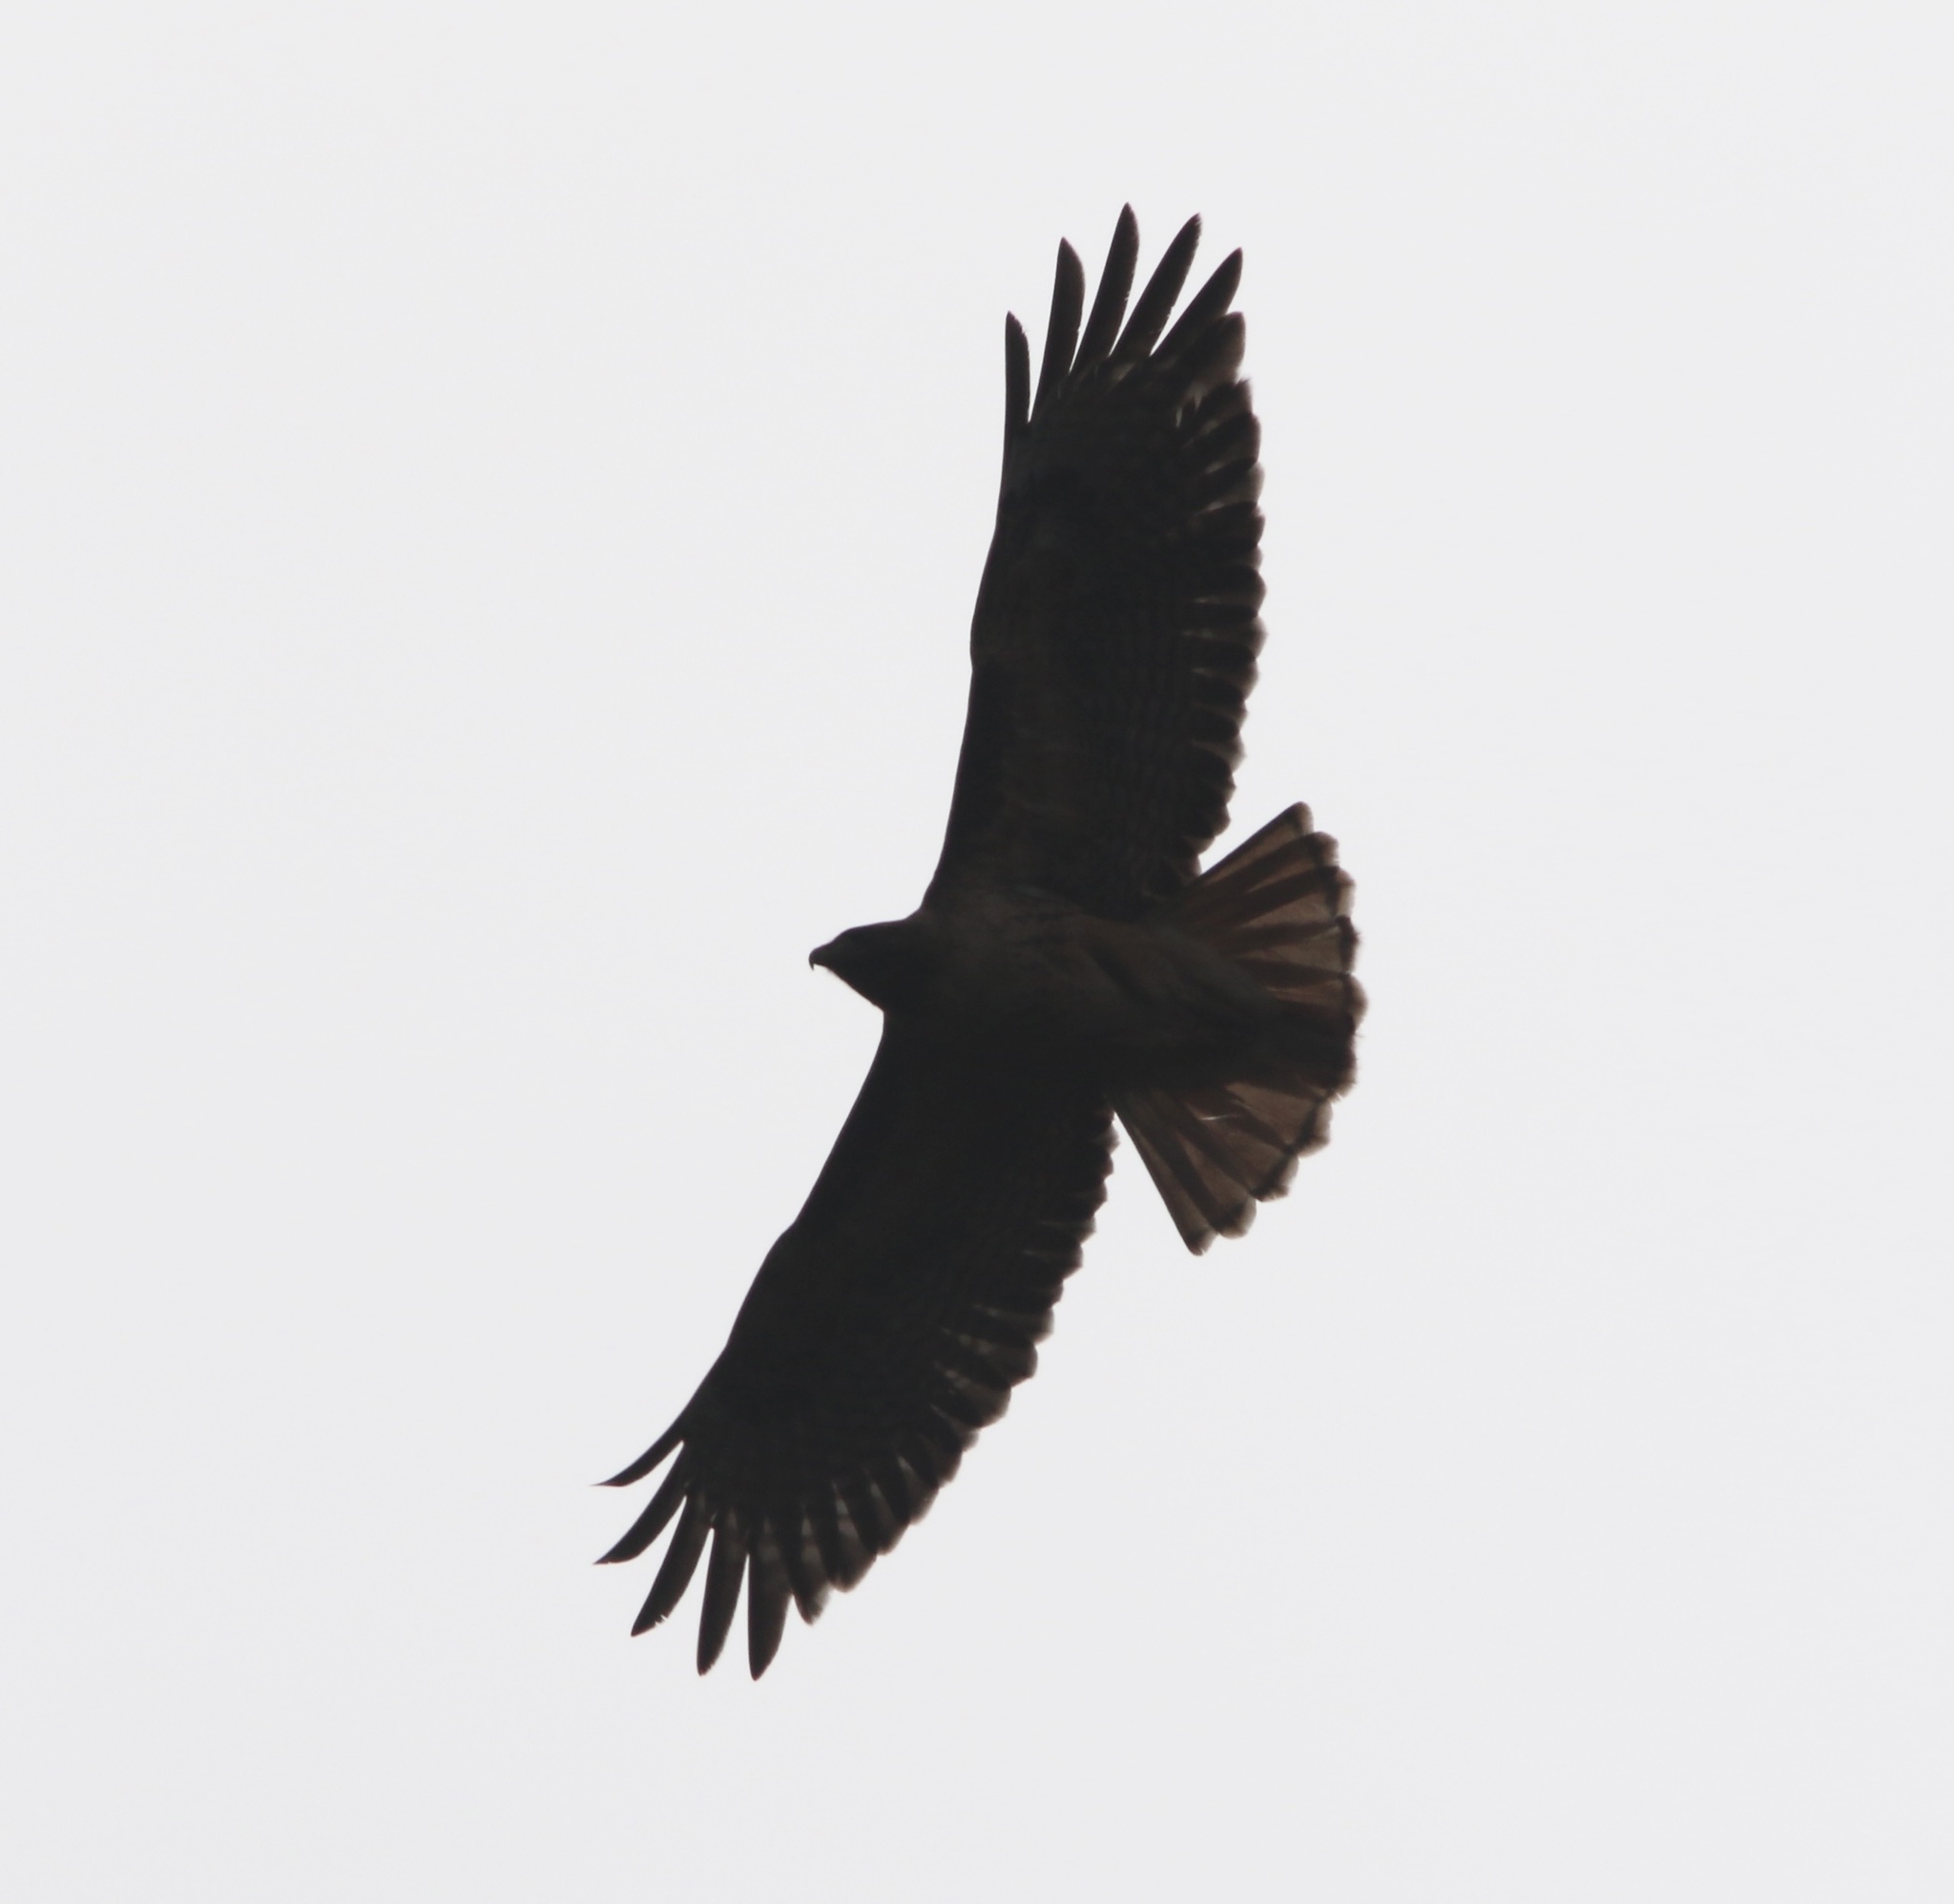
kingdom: Animalia
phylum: Chordata
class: Aves
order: Accipitriformes
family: Accipitridae
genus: Buteo
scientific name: Buteo jamaicensis
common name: Red-tailed hawk
